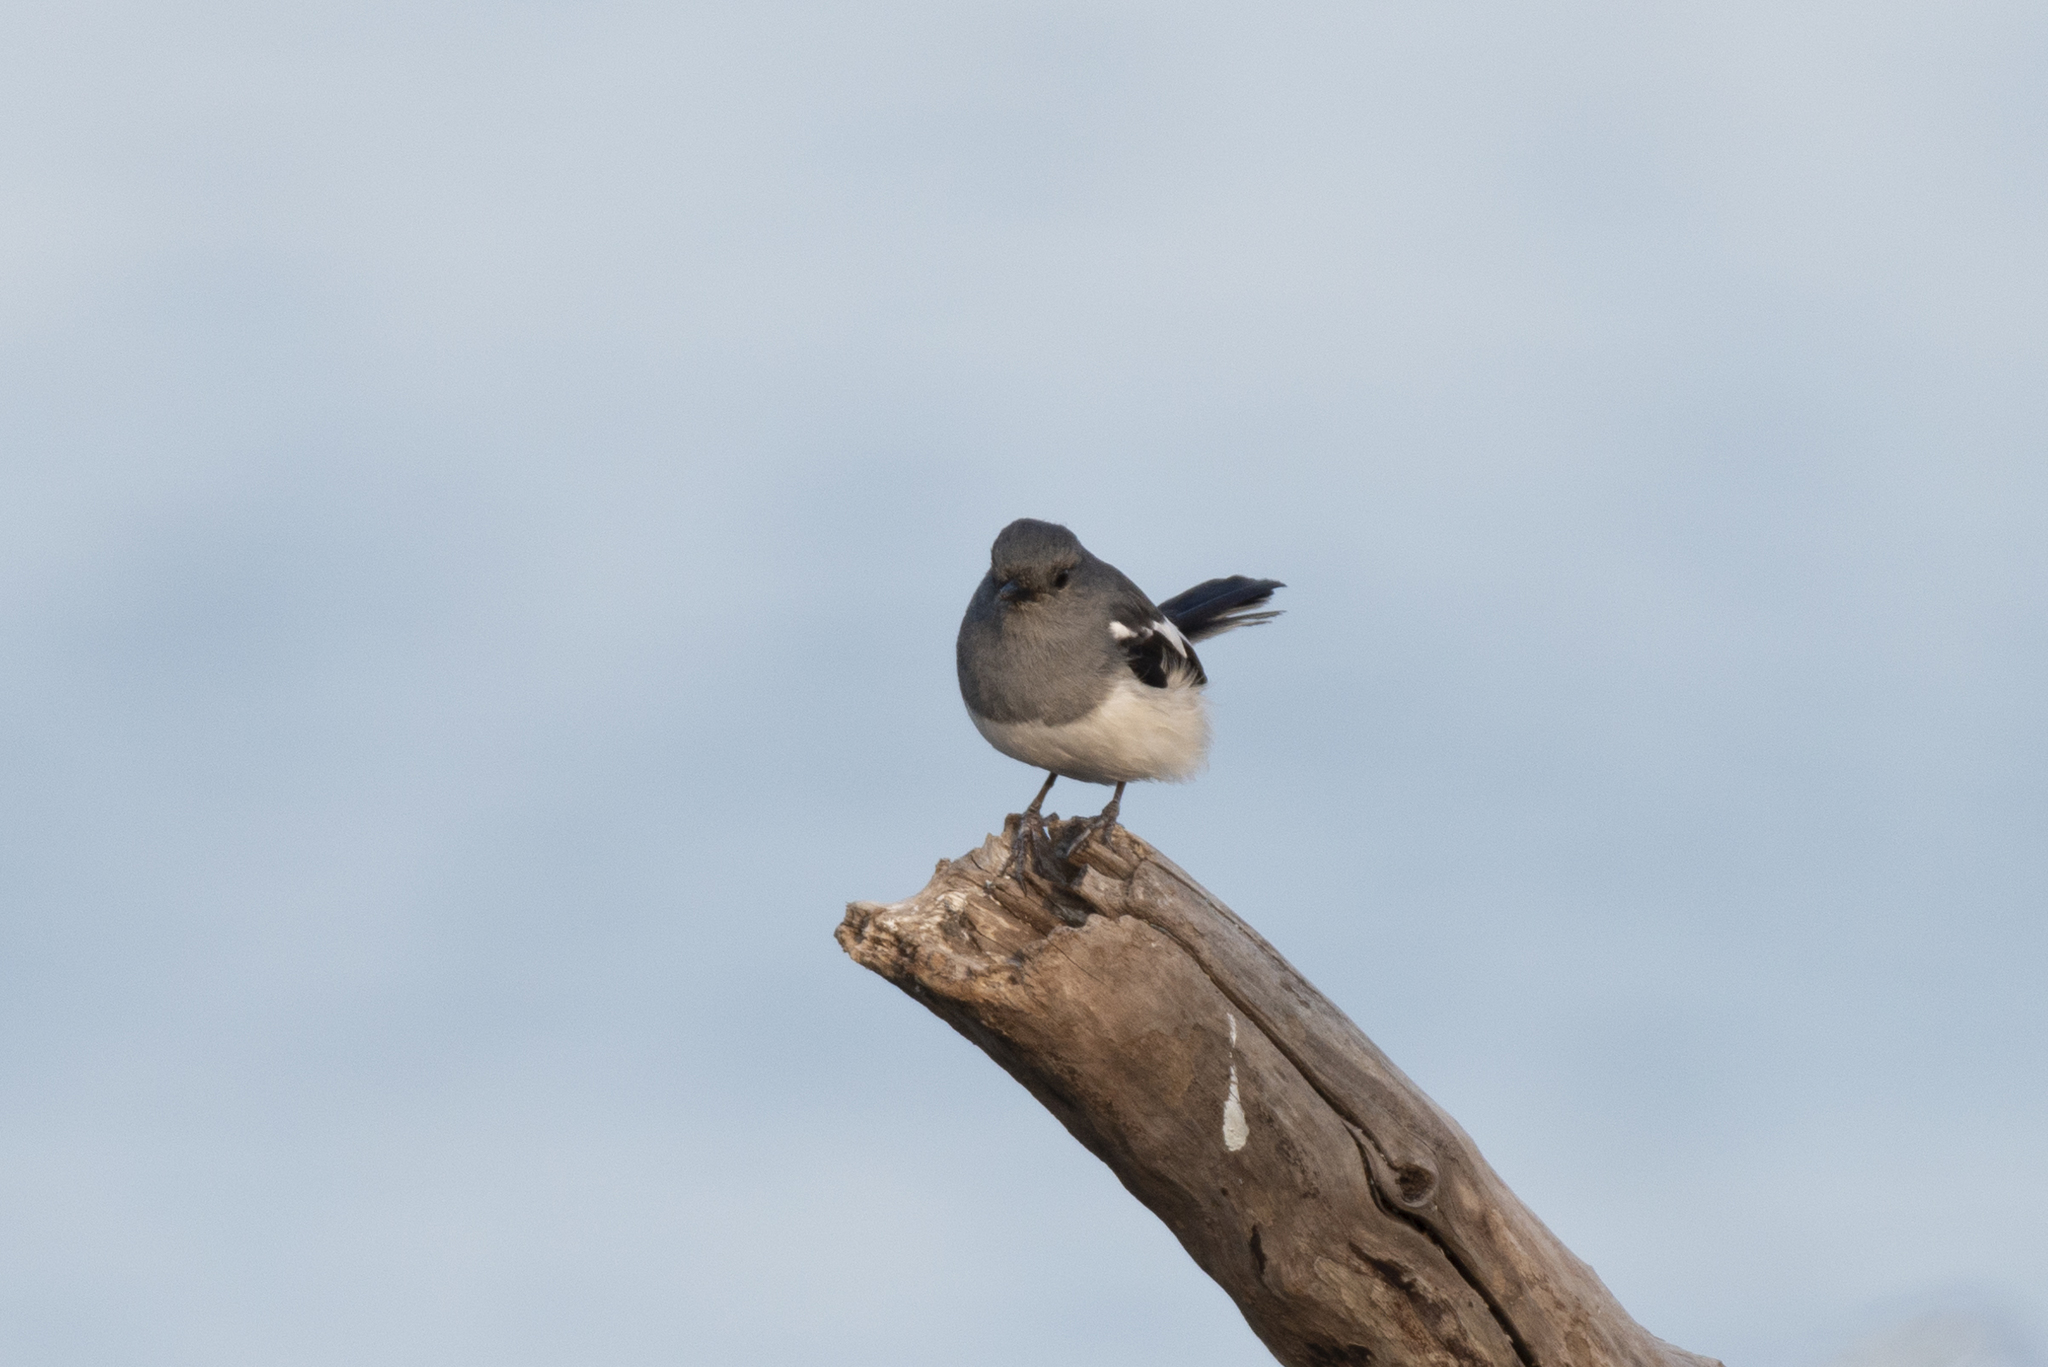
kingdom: Animalia
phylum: Chordata
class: Aves
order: Passeriformes
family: Muscicapidae
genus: Copsychus
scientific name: Copsychus saularis
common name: Oriental magpie-robin
